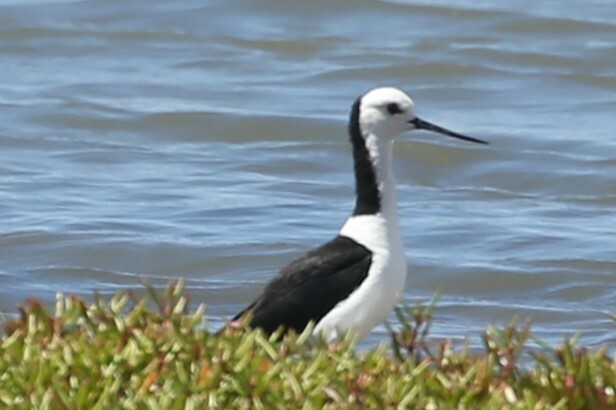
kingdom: Animalia
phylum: Chordata
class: Aves
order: Charadriiformes
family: Recurvirostridae
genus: Himantopus
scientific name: Himantopus leucocephalus
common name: White-headed stilt
